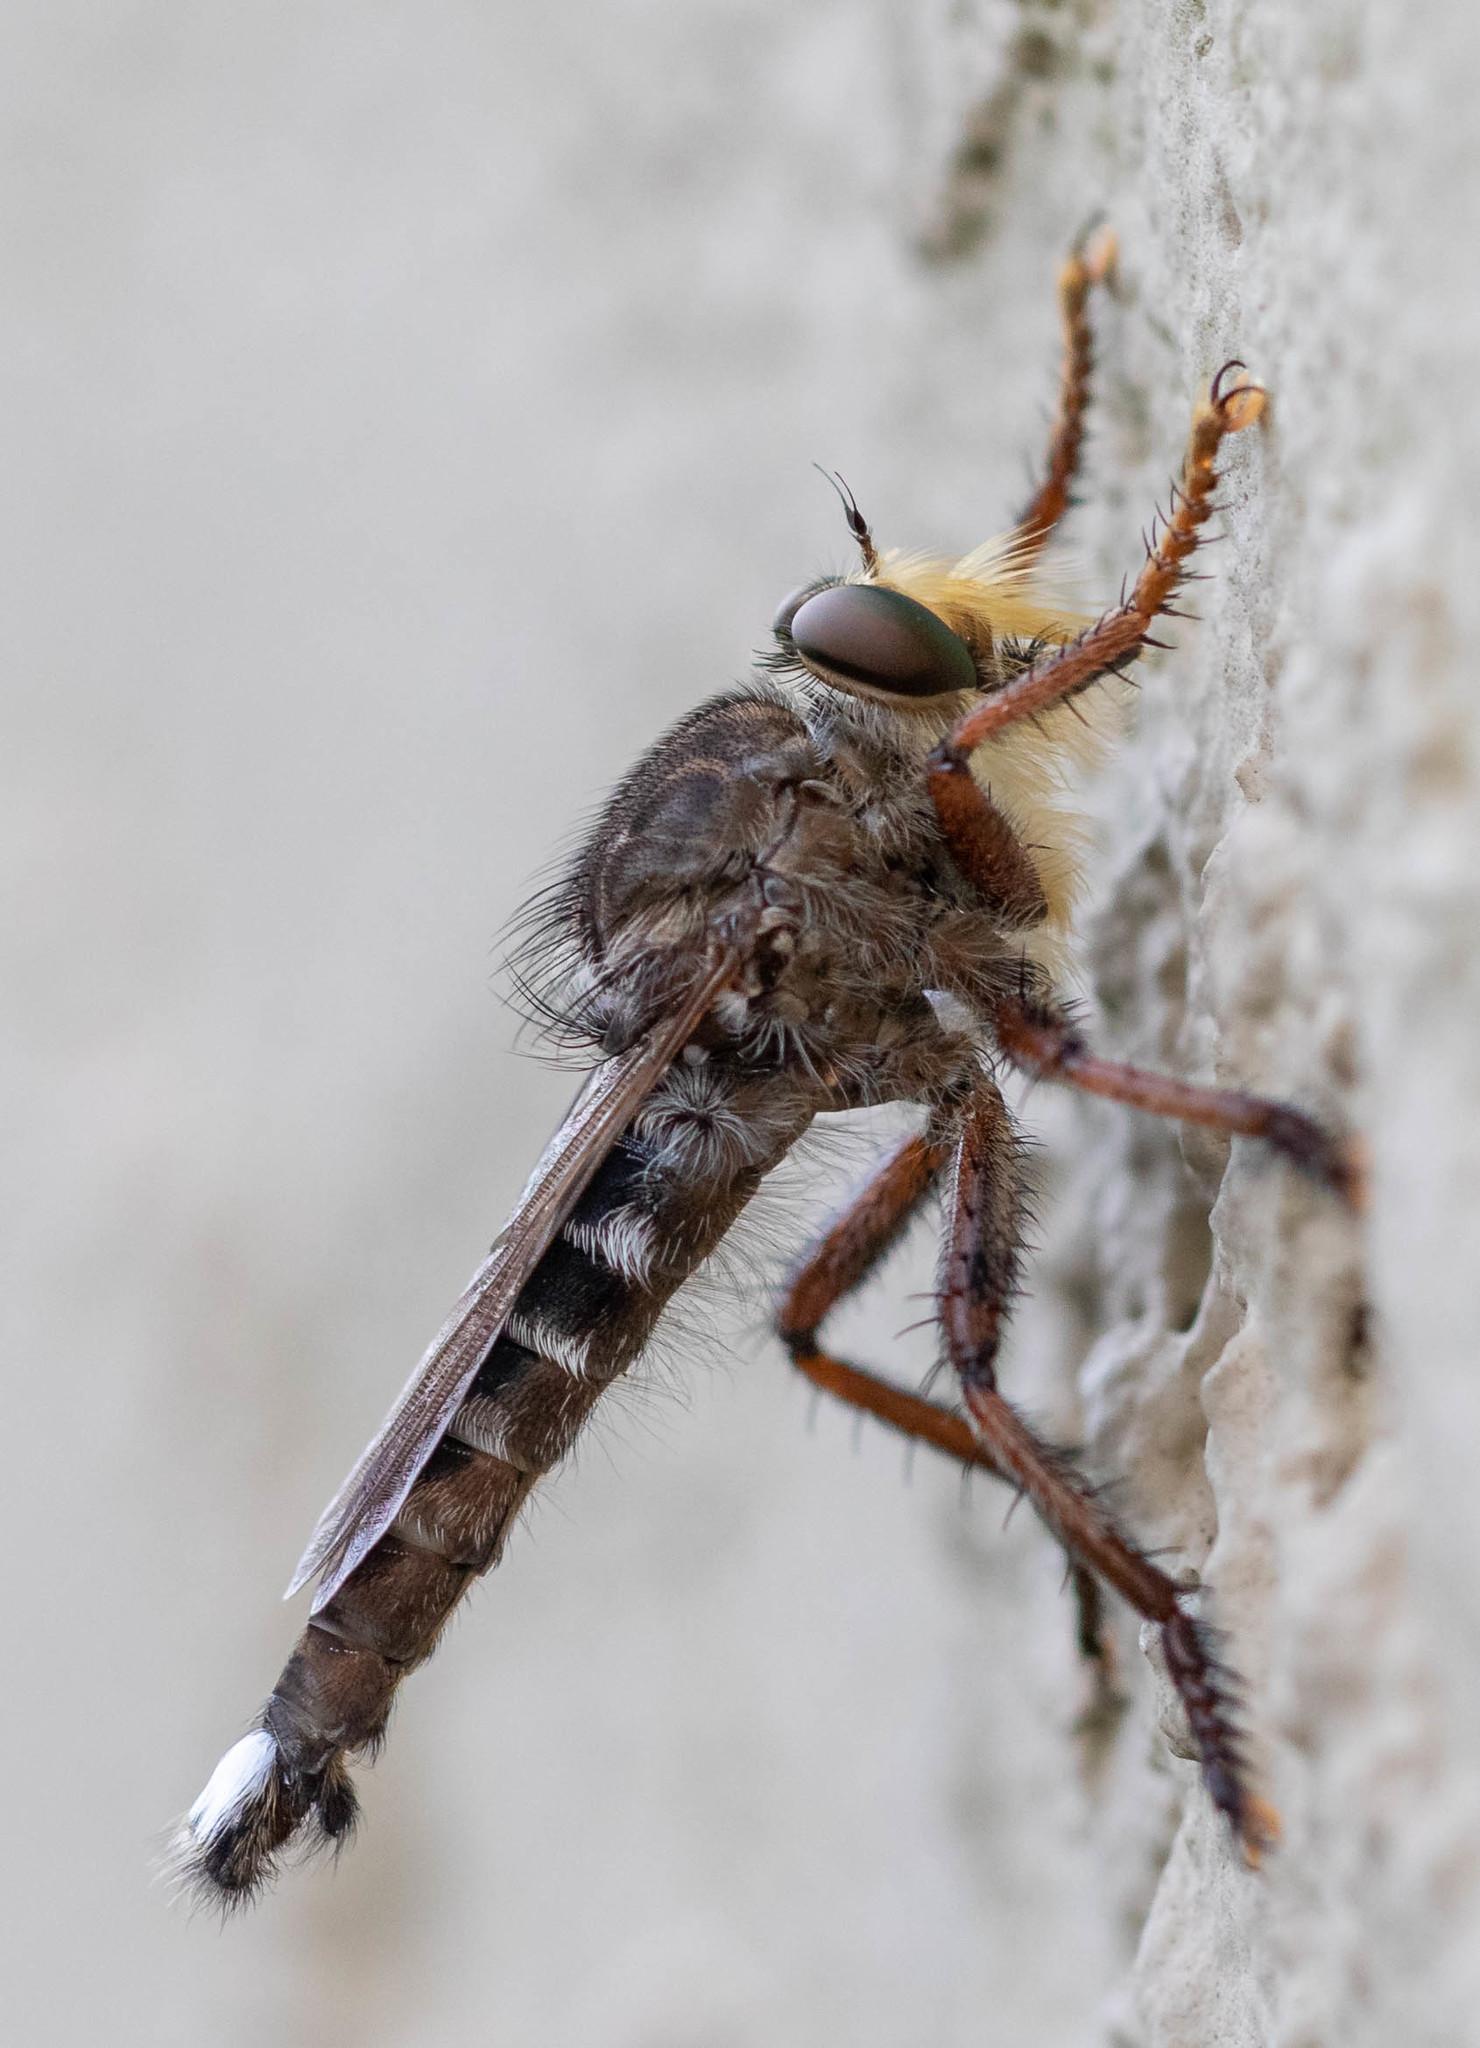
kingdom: Animalia
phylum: Arthropoda
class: Insecta
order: Diptera
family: Asilidae
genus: Promachus
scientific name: Promachus bastardii
